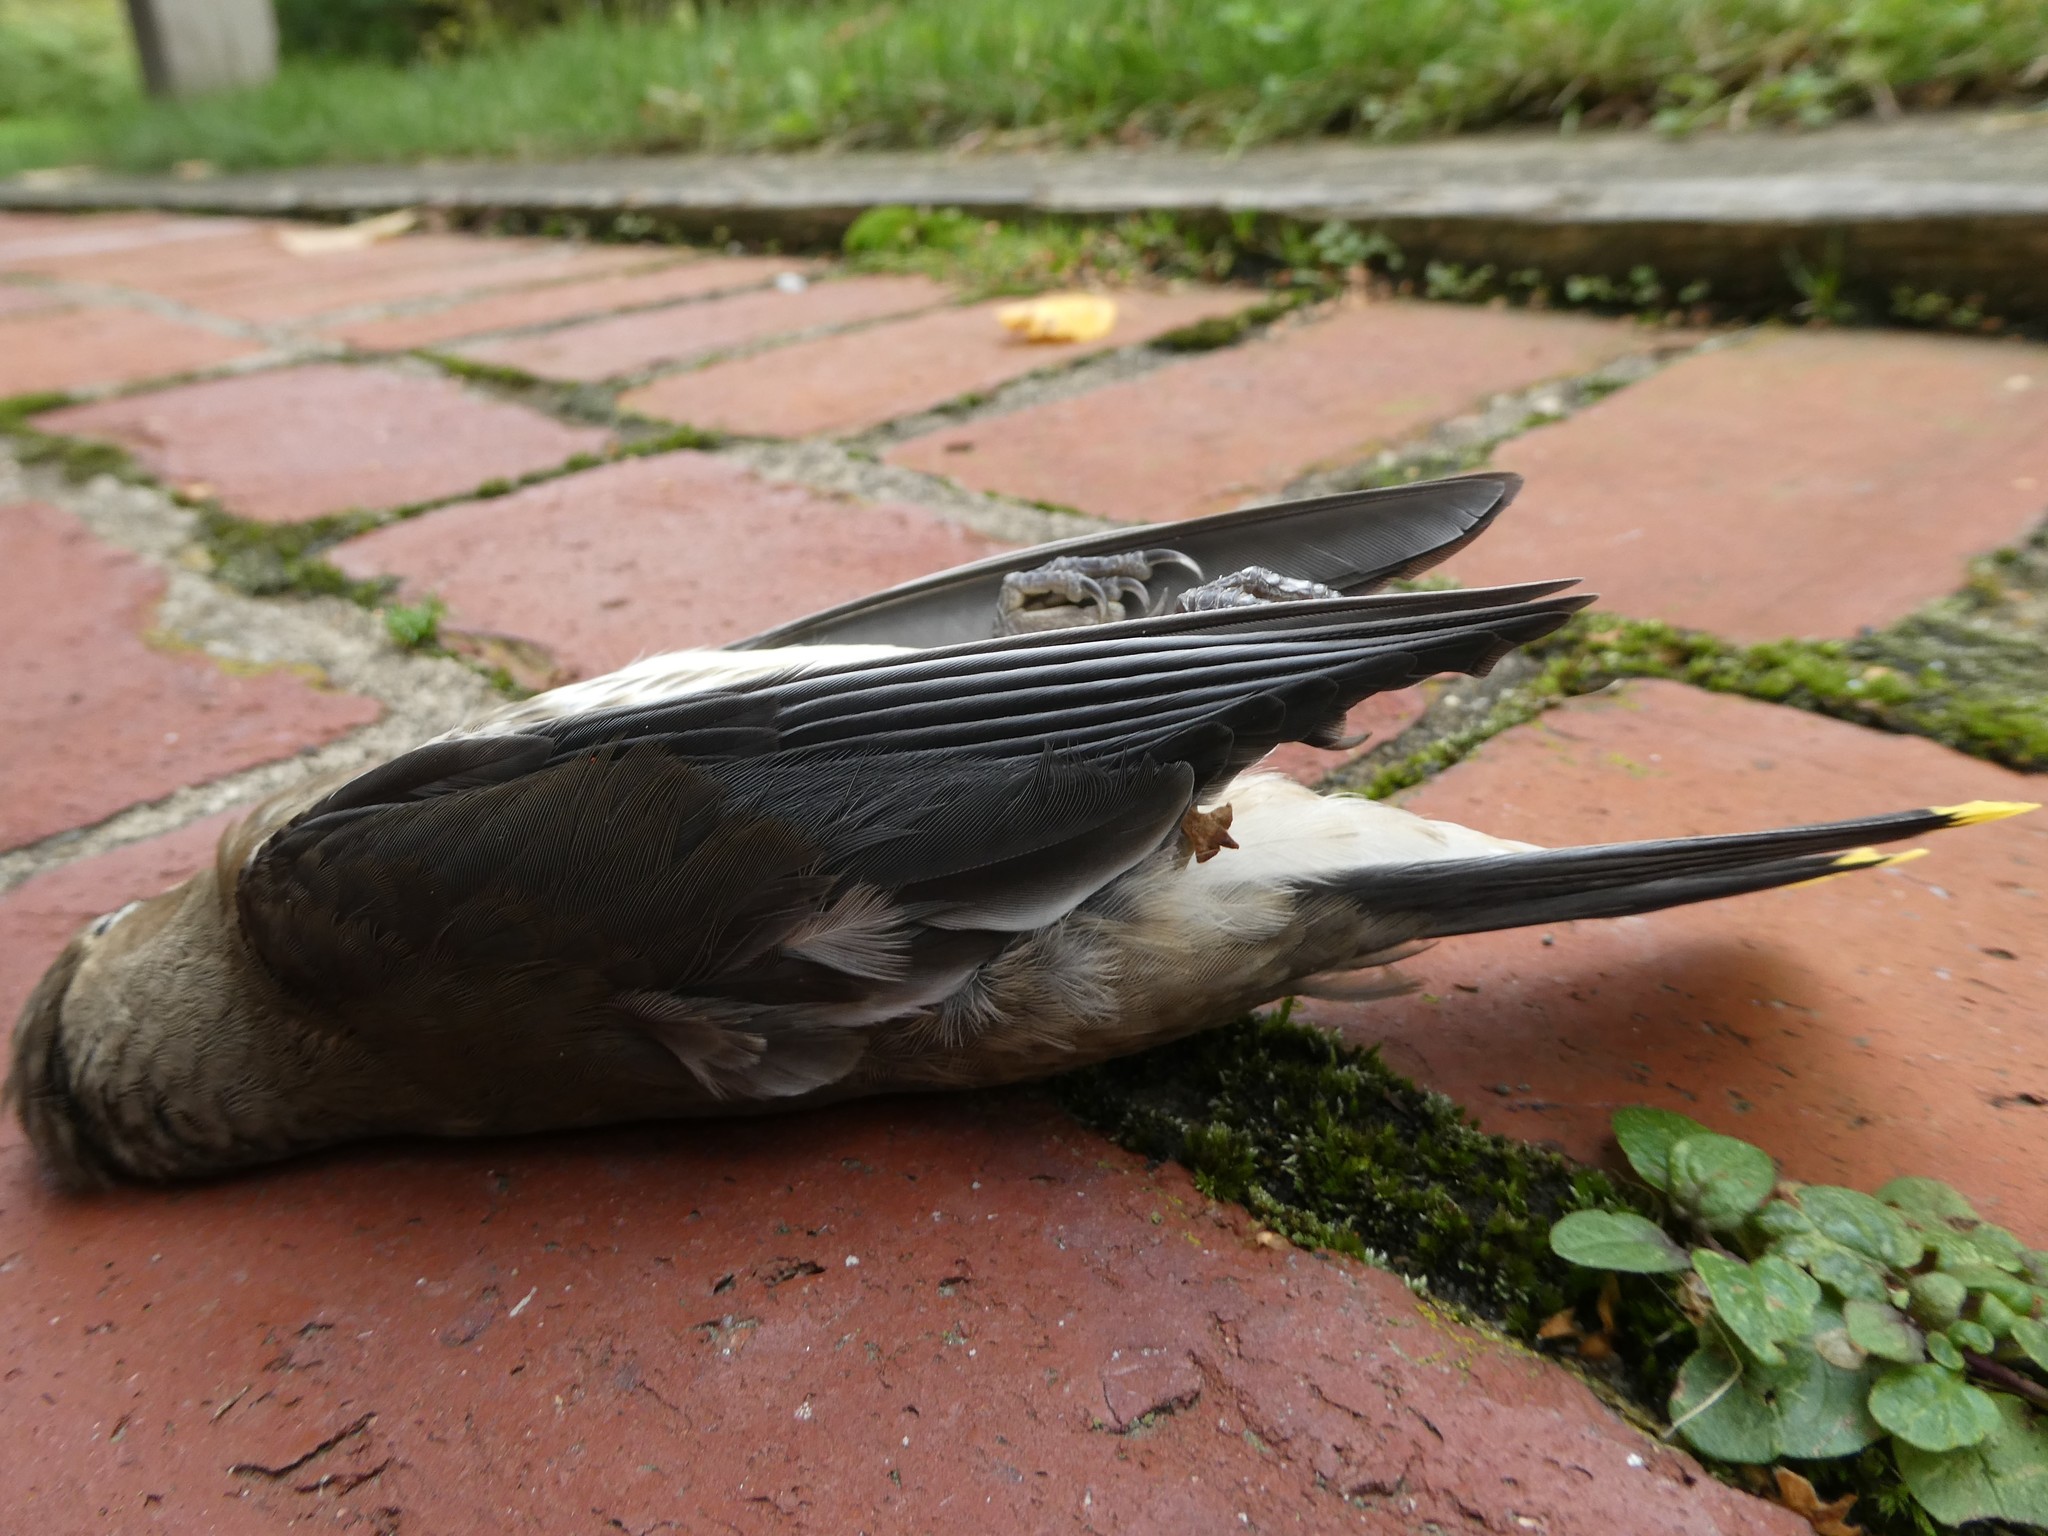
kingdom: Animalia
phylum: Chordata
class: Aves
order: Passeriformes
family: Bombycillidae
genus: Bombycilla
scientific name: Bombycilla cedrorum
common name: Cedar waxwing
